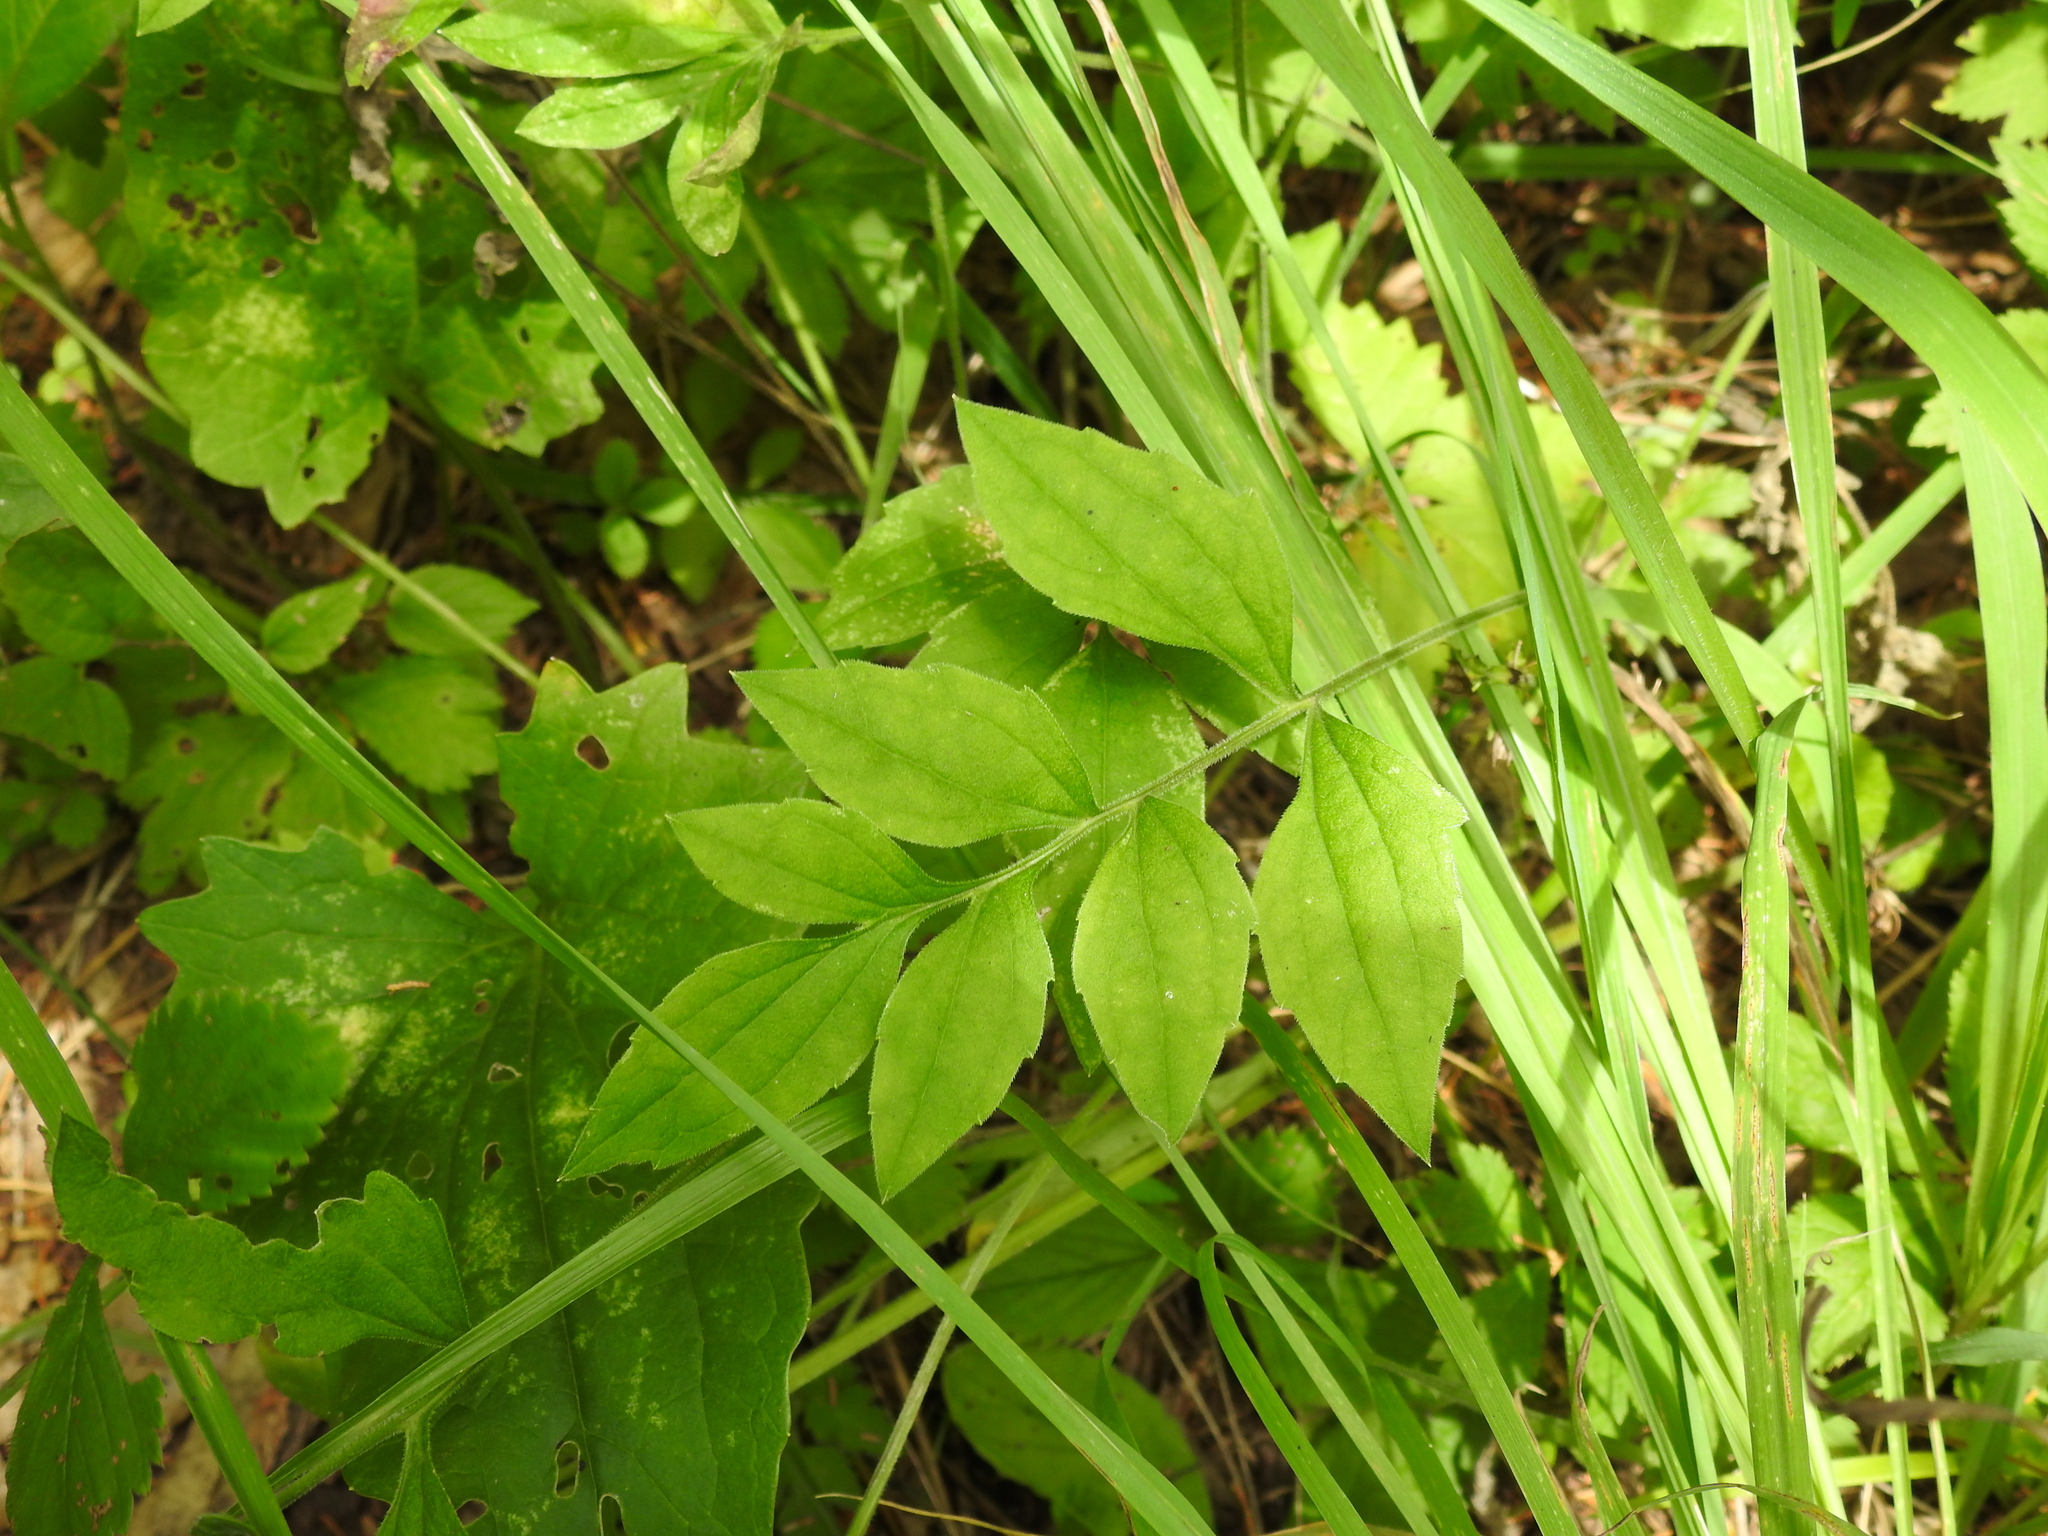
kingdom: Plantae
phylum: Tracheophyta
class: Magnoliopsida
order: Asterales
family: Asteraceae
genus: Ratibida
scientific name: Ratibida pinnata
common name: Drooping prairie-coneflower
